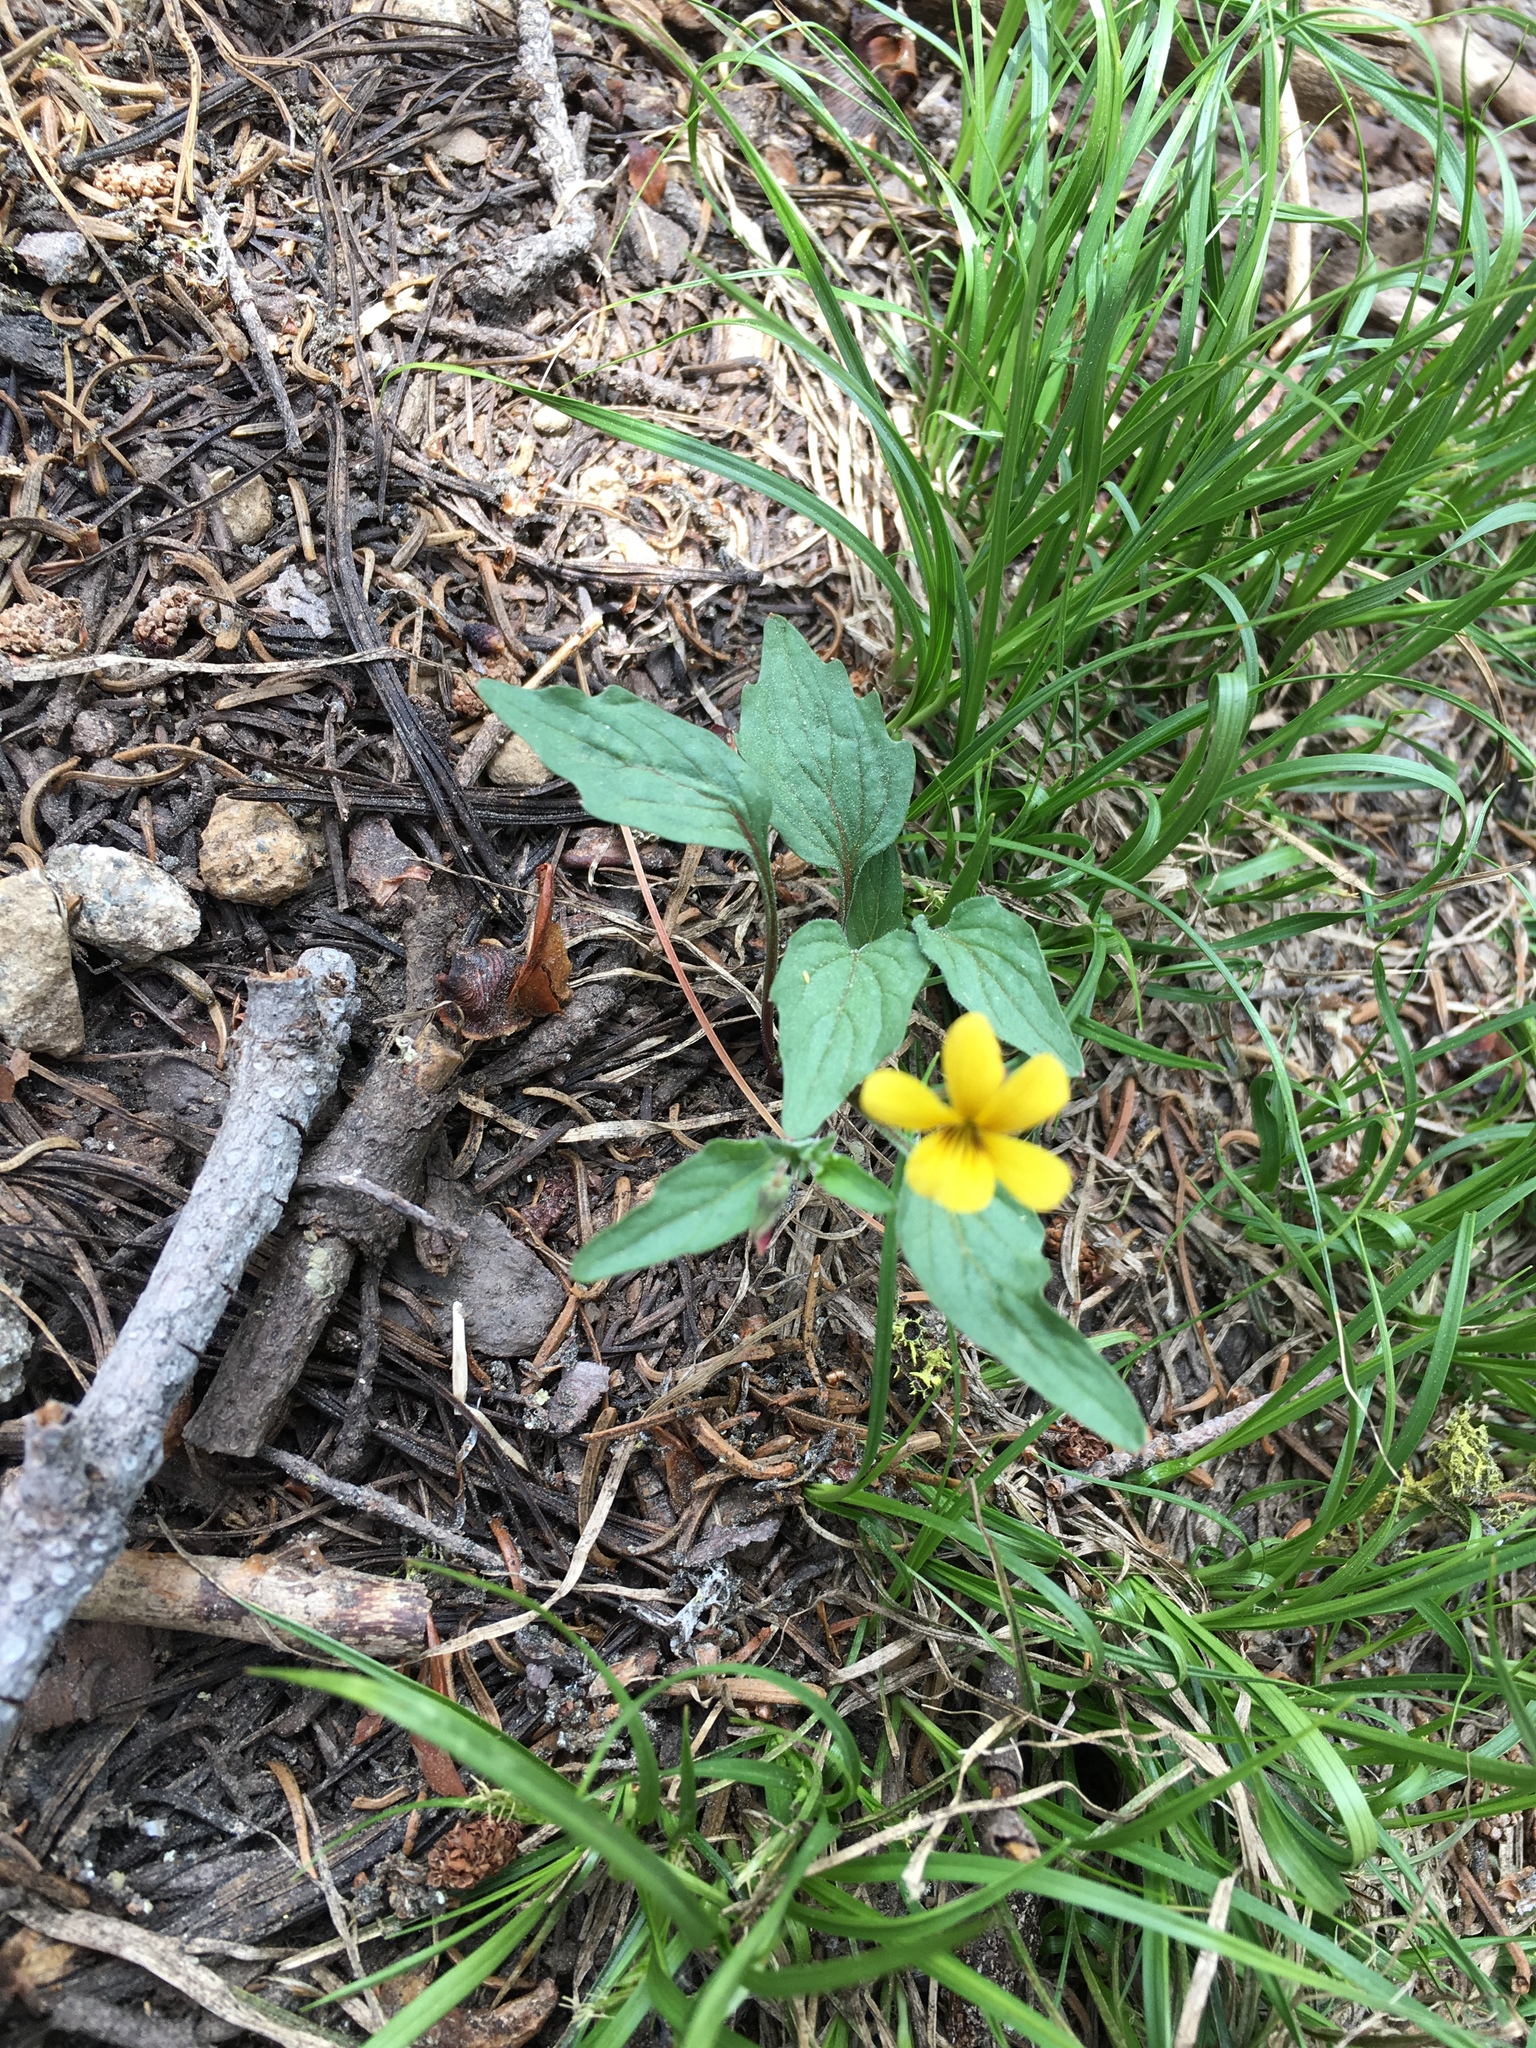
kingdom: Plantae
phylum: Tracheophyta
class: Magnoliopsida
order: Malpighiales
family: Violaceae
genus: Viola
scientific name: Viola purpurea
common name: Pine violet
